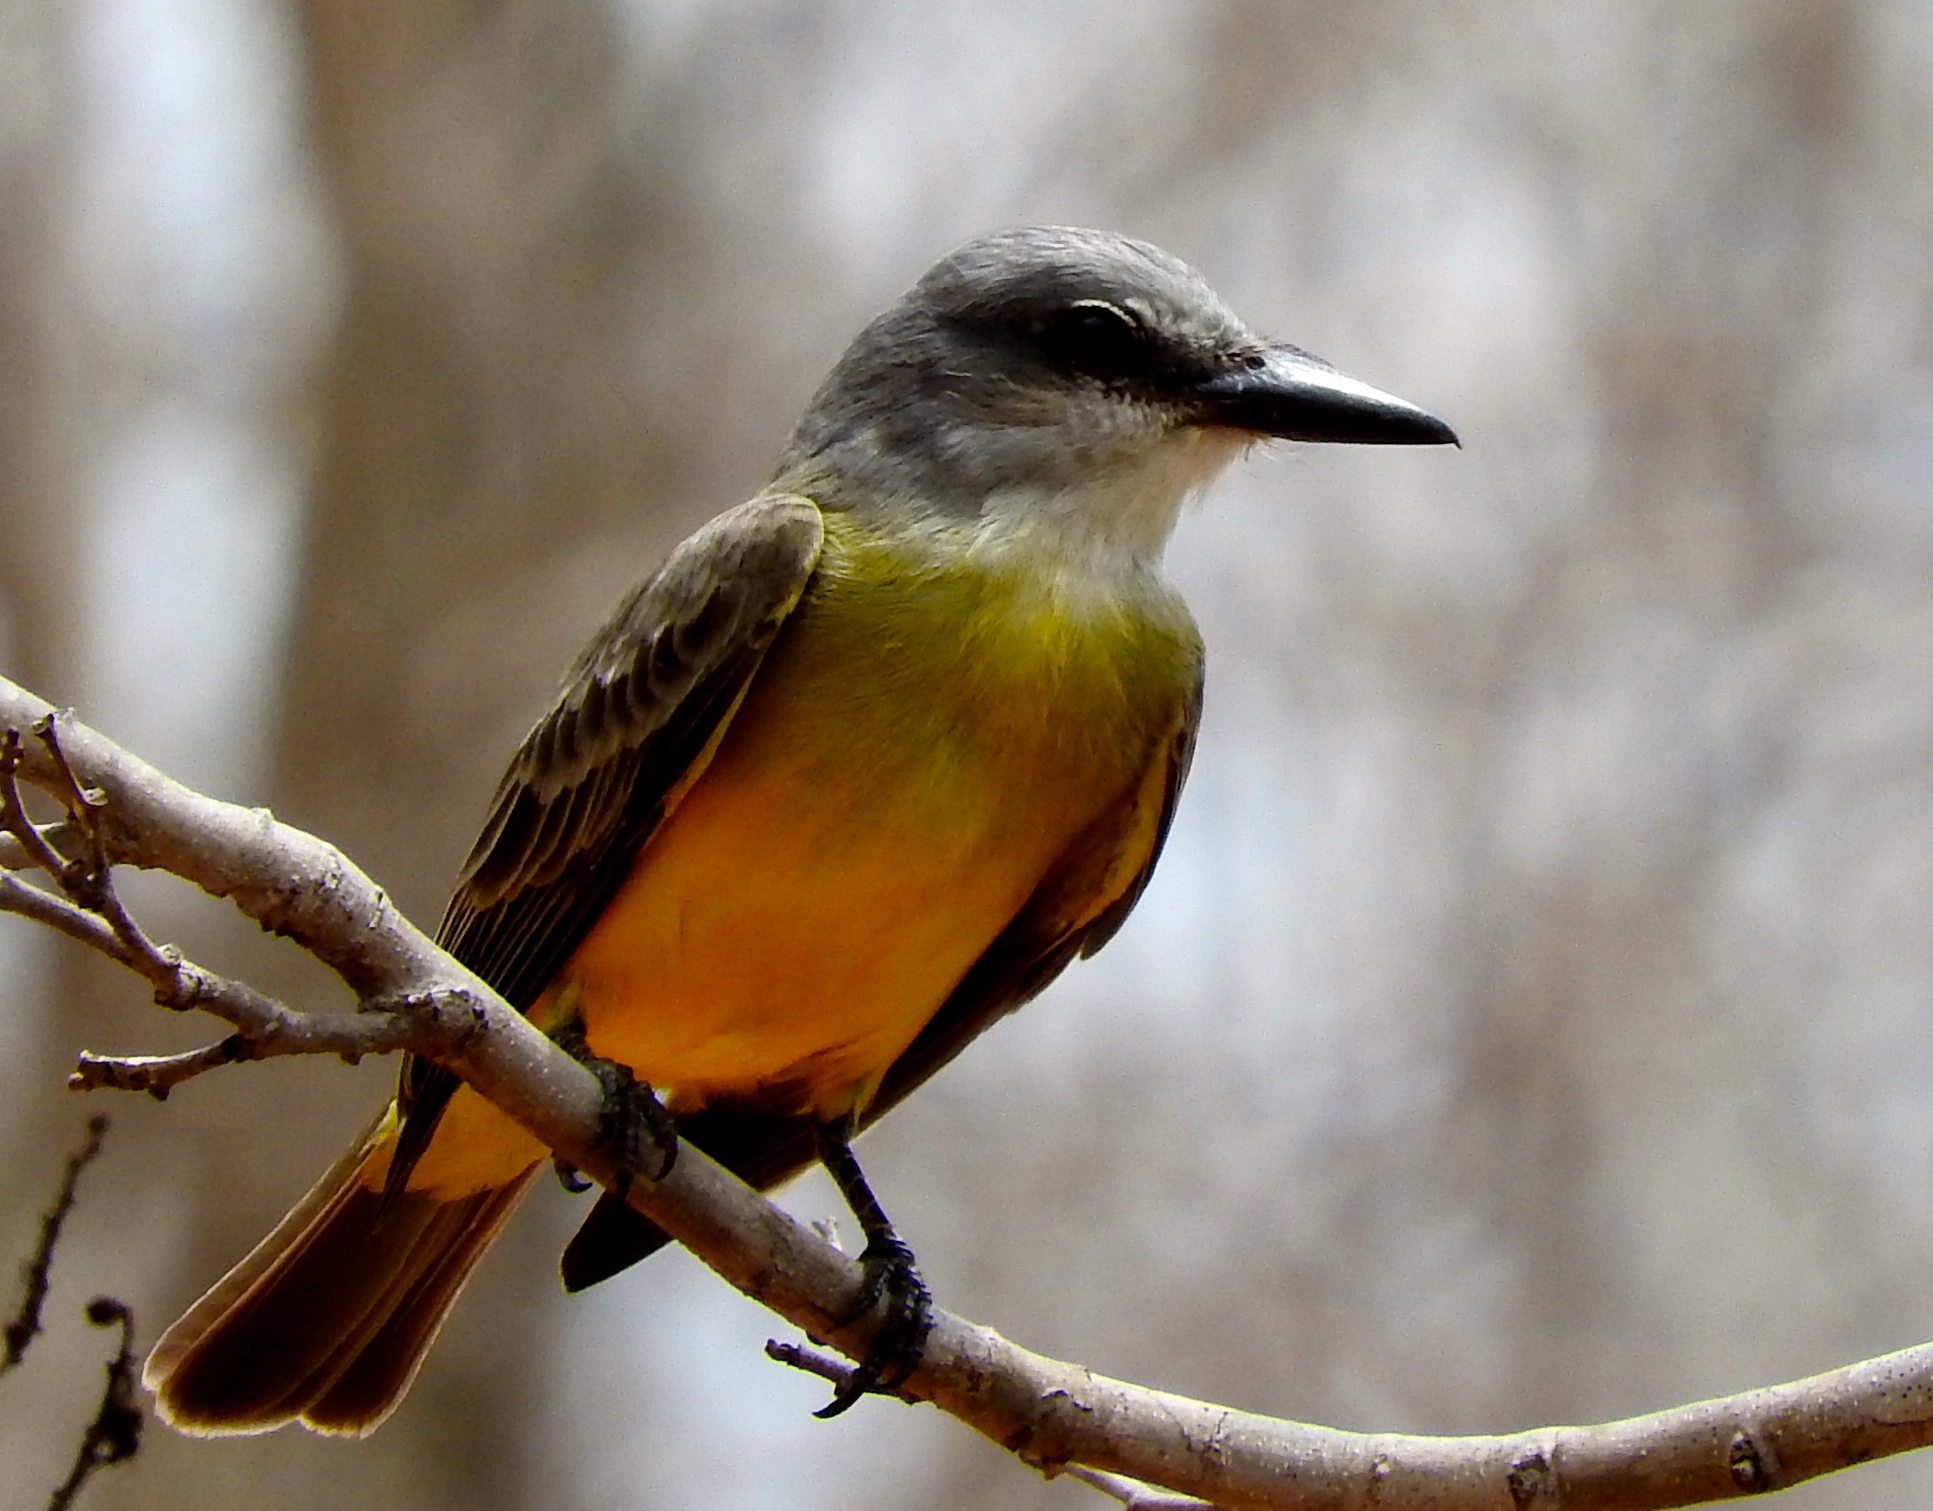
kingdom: Animalia
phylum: Chordata
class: Aves
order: Passeriformes
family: Tyrannidae
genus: Tyrannus
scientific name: Tyrannus melancholicus
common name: Tropical kingbird
